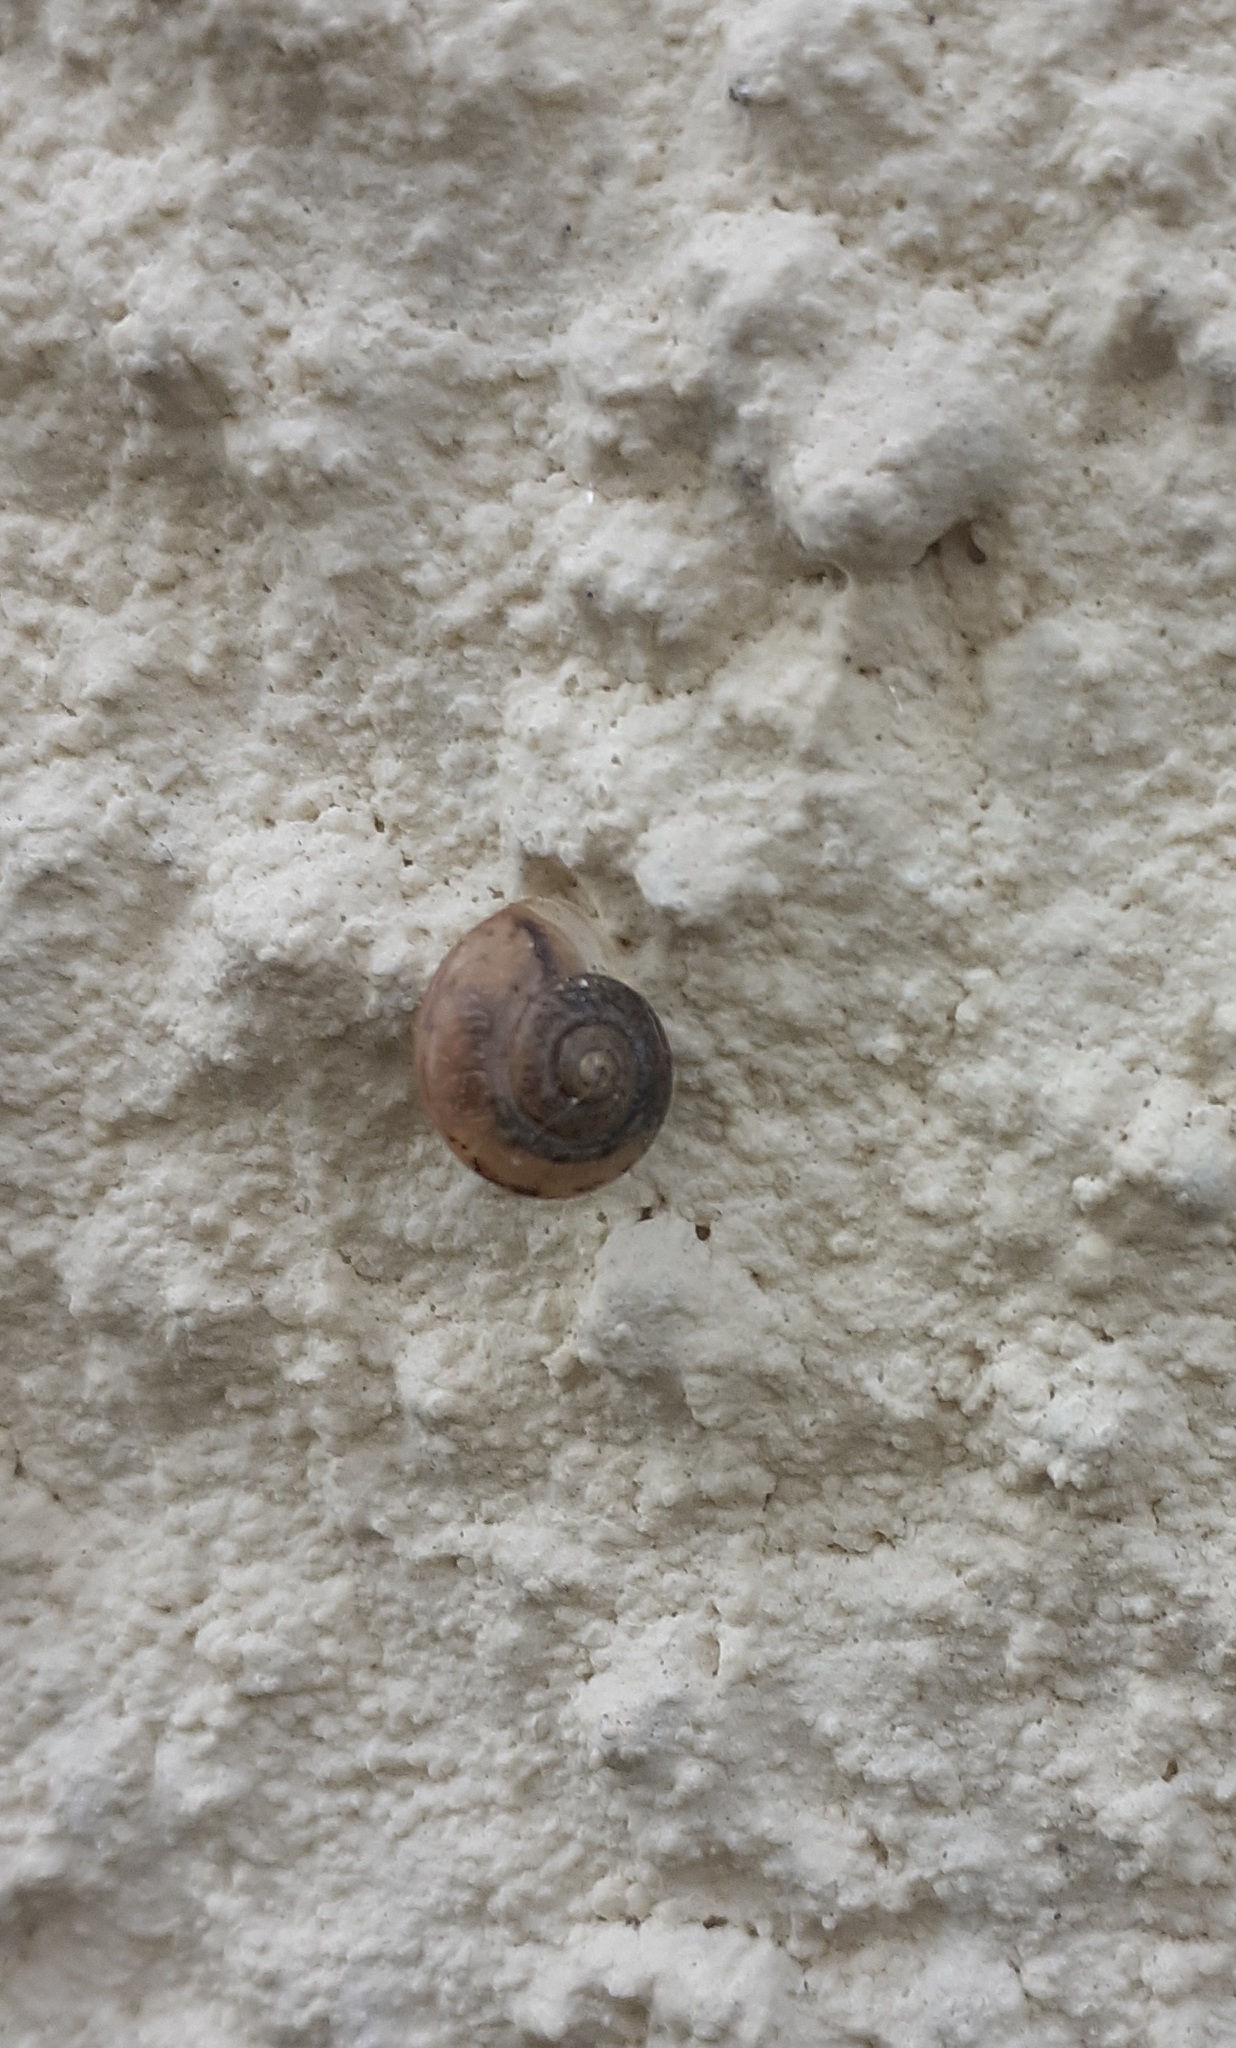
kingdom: Animalia
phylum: Mollusca
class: Gastropoda
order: Stylommatophora
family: Camaenidae
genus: Bradybaena
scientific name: Bradybaena similaris
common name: Asian trampsnail
